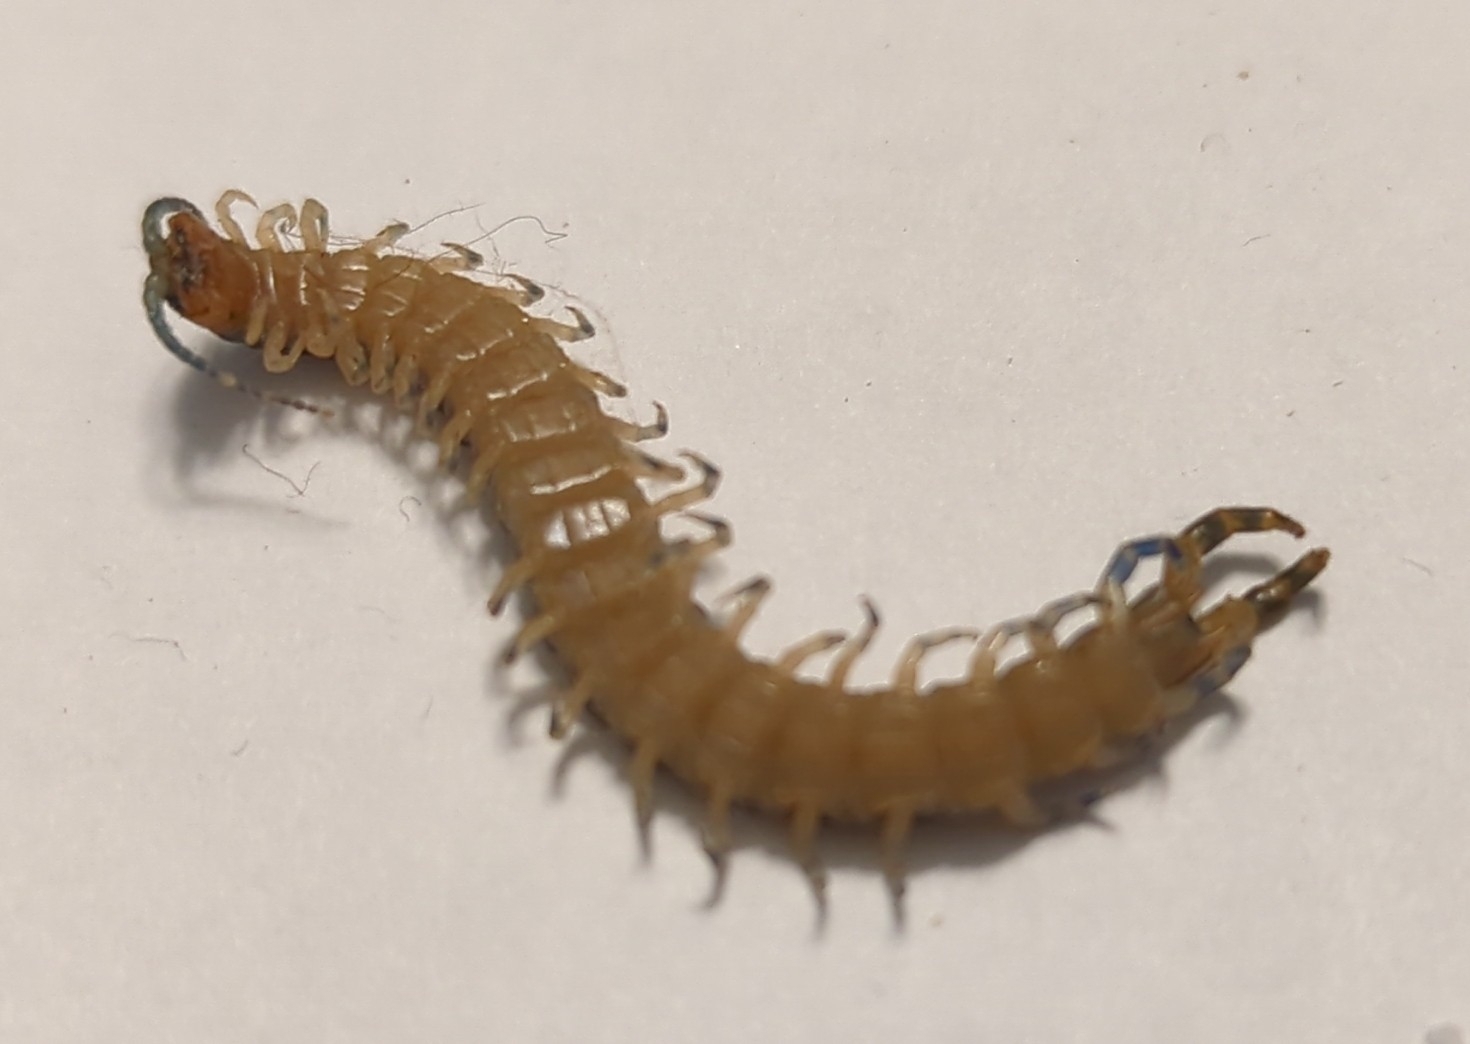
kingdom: Animalia
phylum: Arthropoda
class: Chilopoda
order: Scolopendromorpha
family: Scolopendridae
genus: Hemiscolopendra
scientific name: Hemiscolopendra marginata
